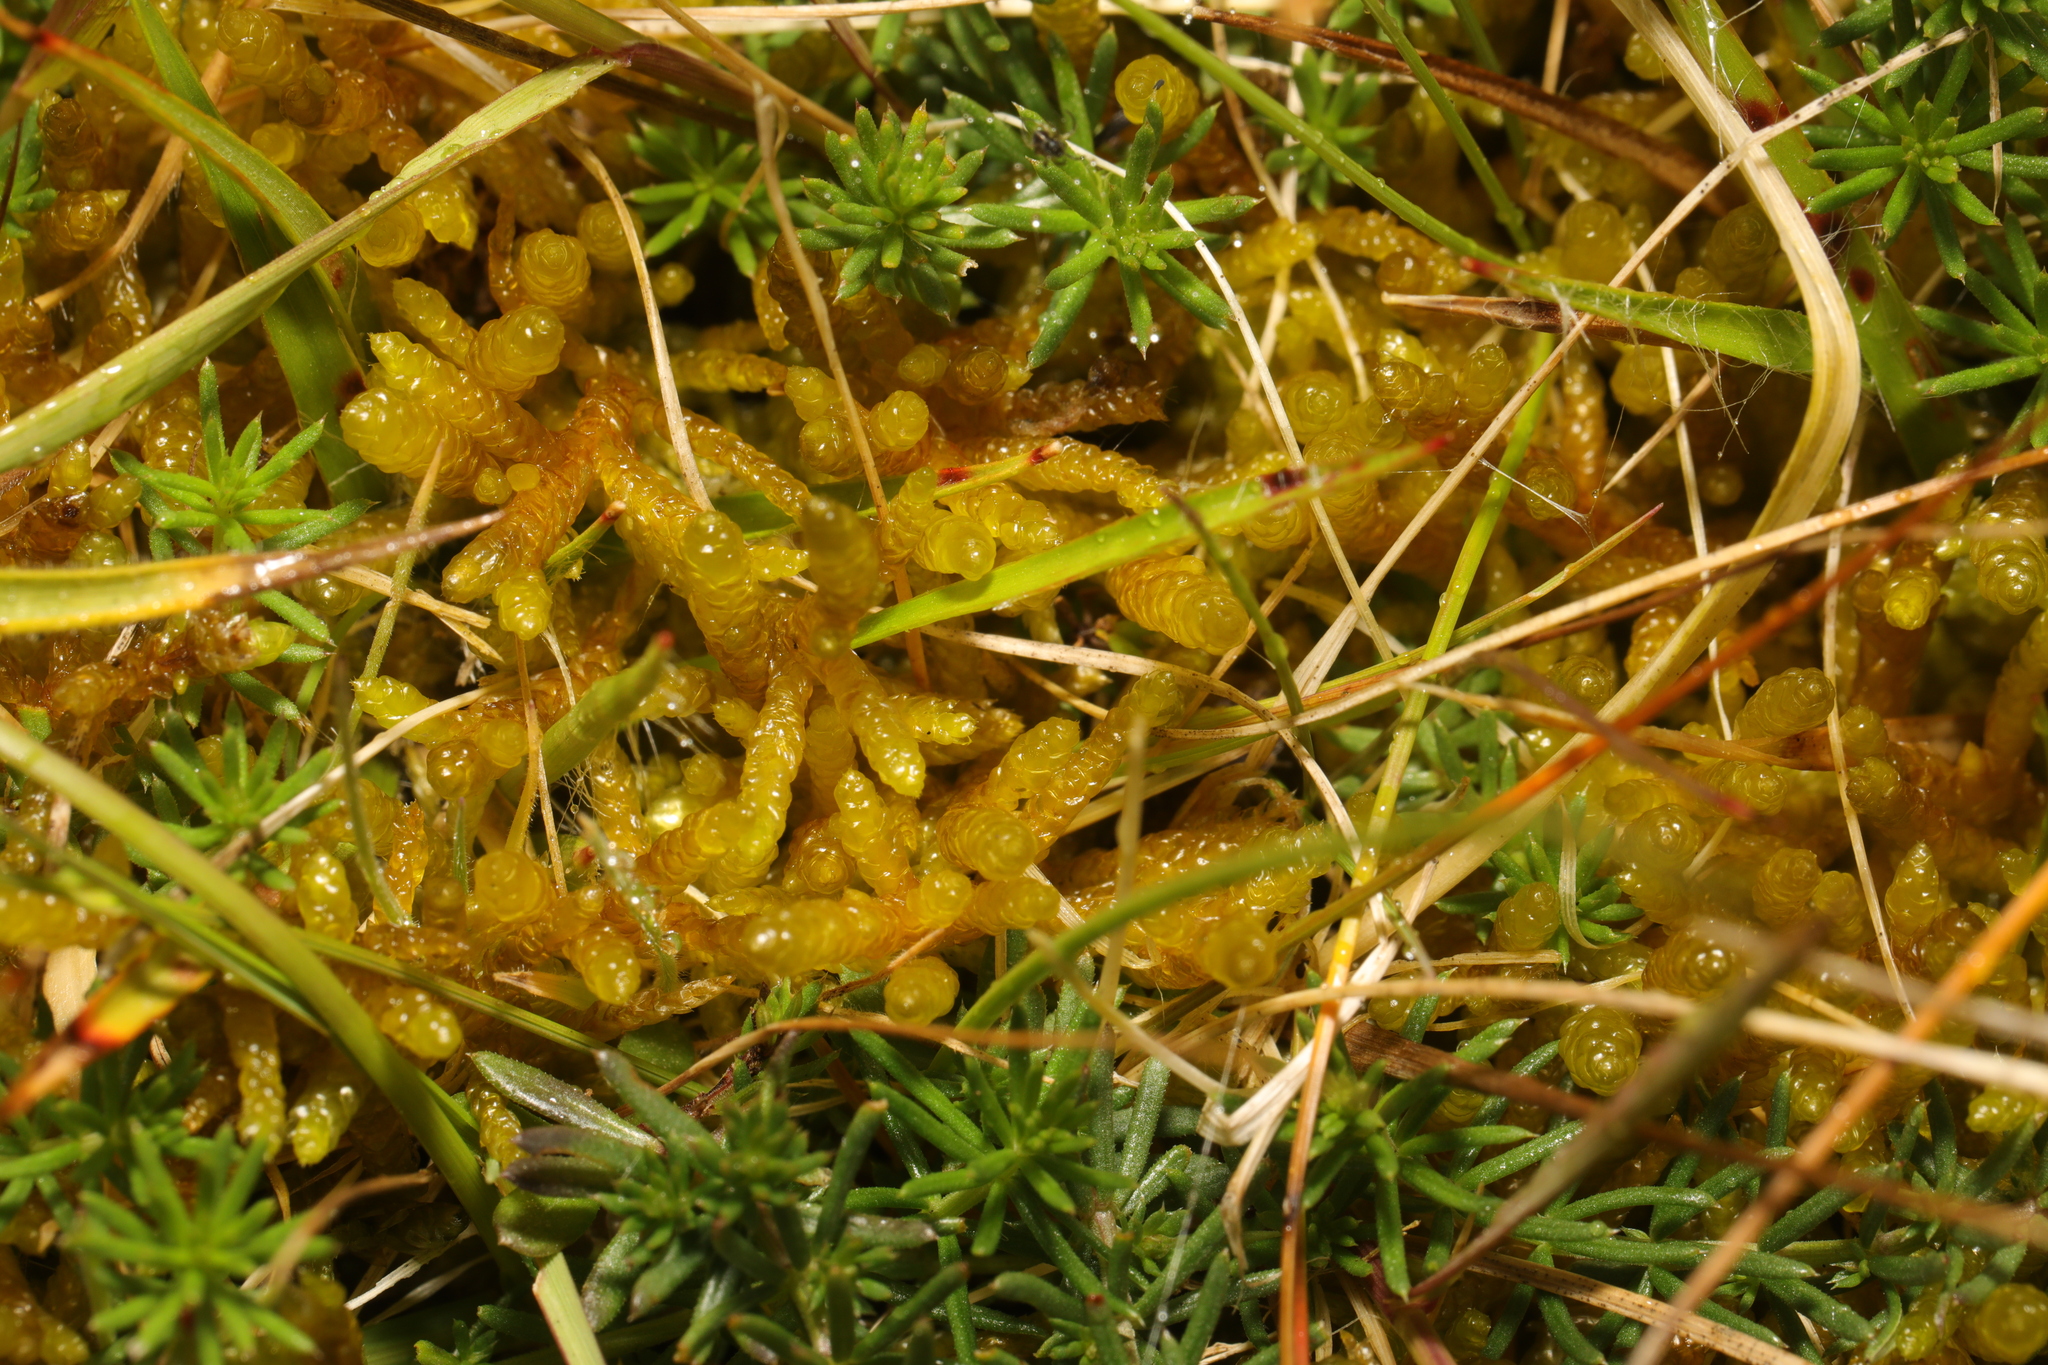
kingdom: Plantae
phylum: Bryophyta
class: Bryopsida
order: Hypnales
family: Brachytheciaceae
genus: Pseudoscleropodium
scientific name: Pseudoscleropodium purum
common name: Neat feather-moss
